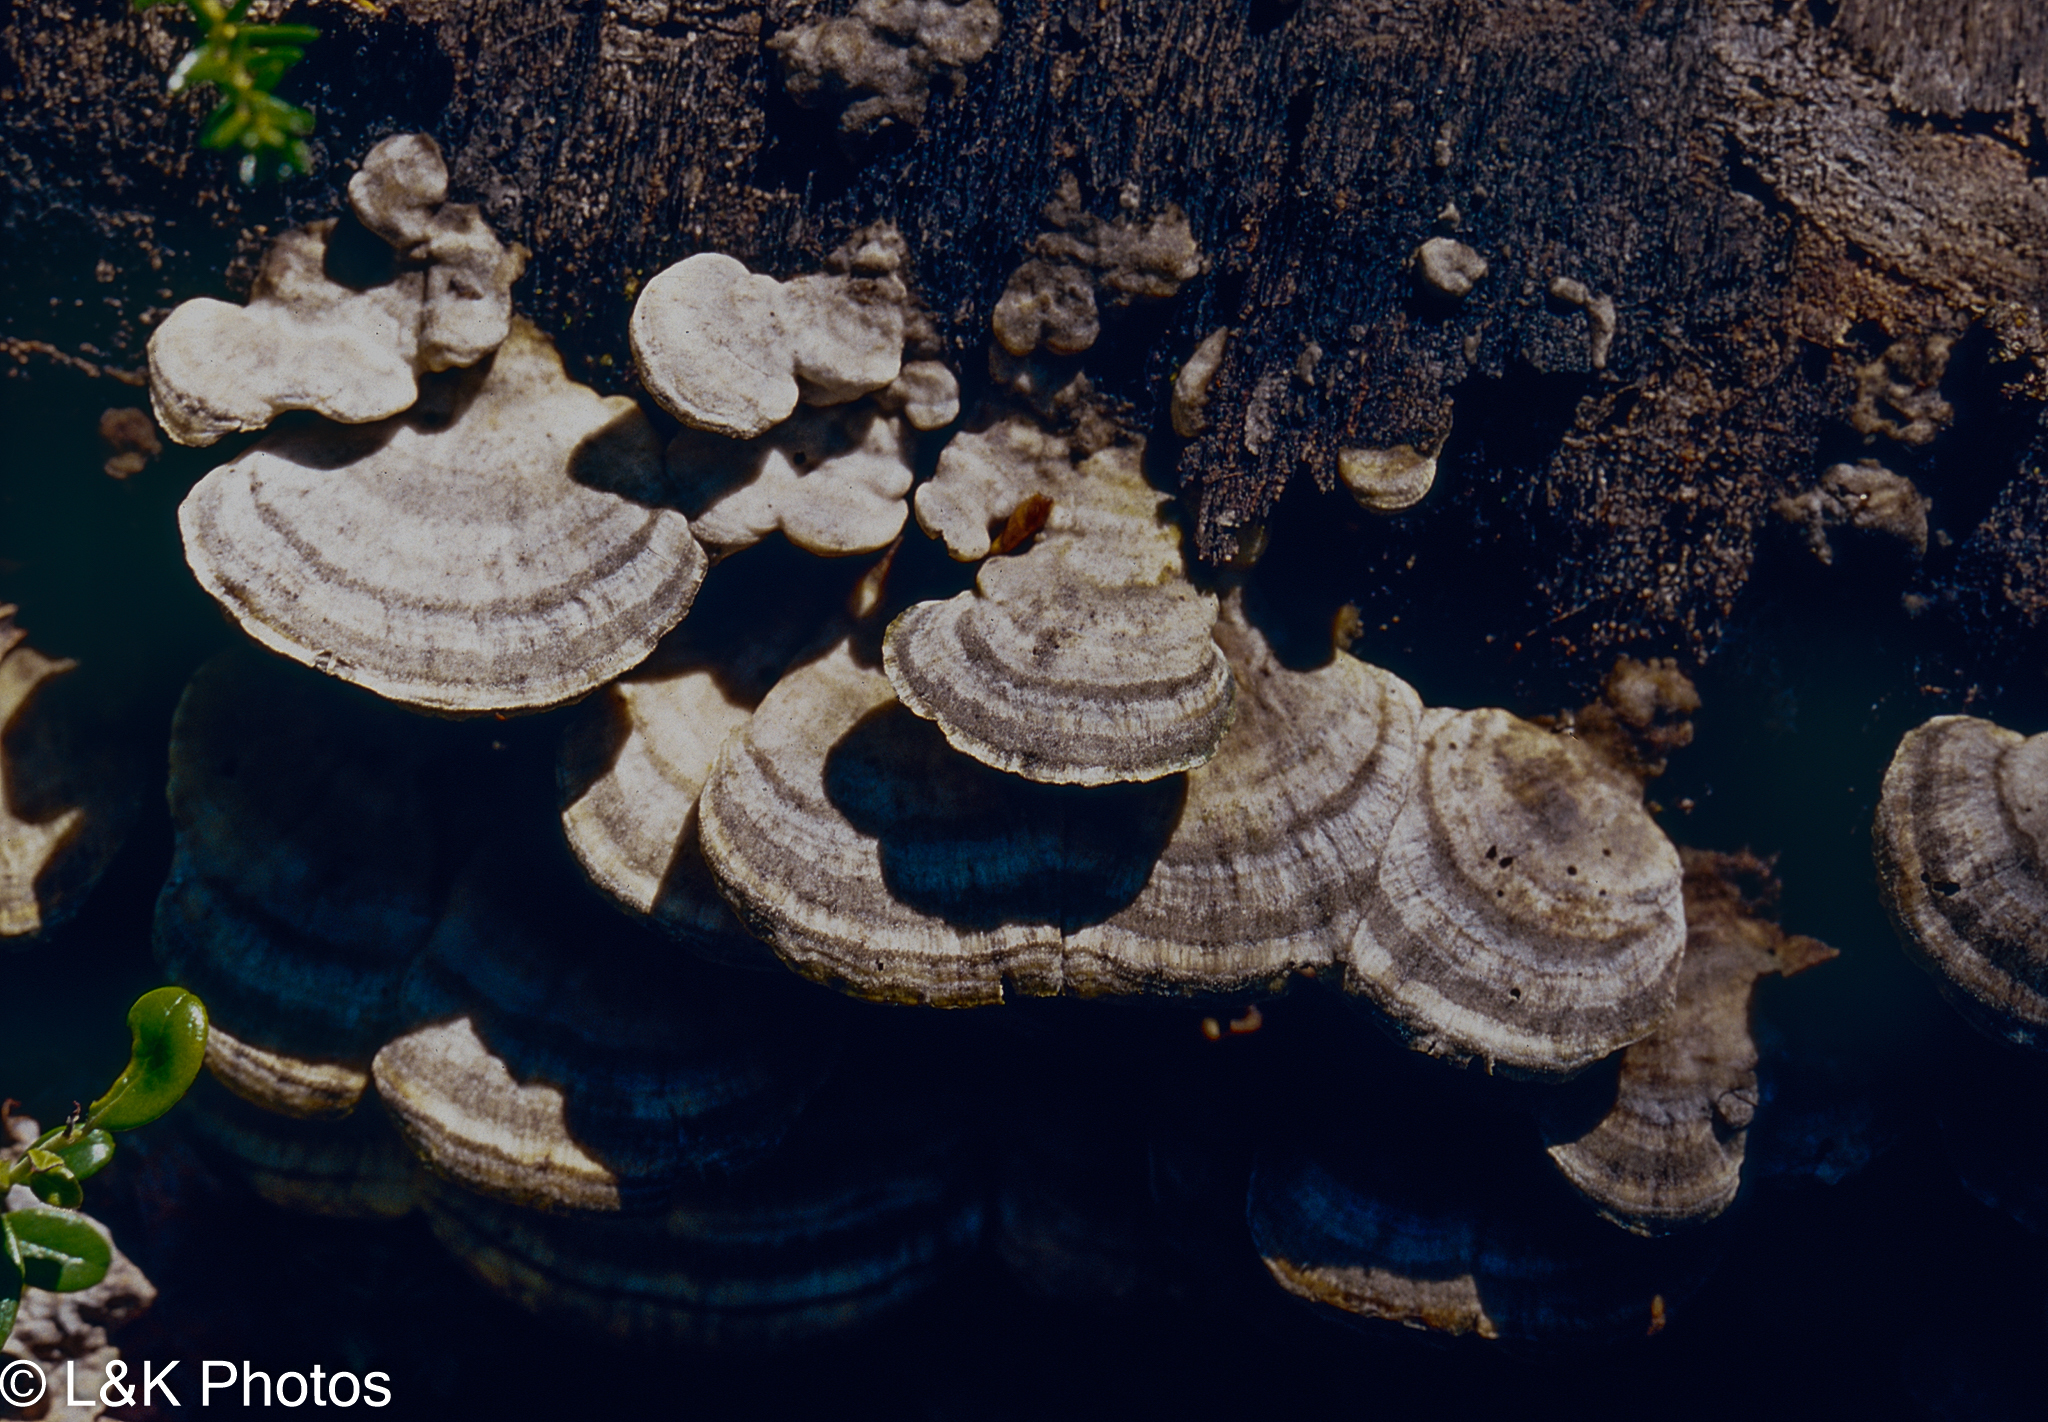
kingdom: Fungi
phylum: Basidiomycota
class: Agaricomycetes
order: Polyporales
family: Polyporaceae
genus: Trametes
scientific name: Trametes hirsuta
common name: Hairy bracket
